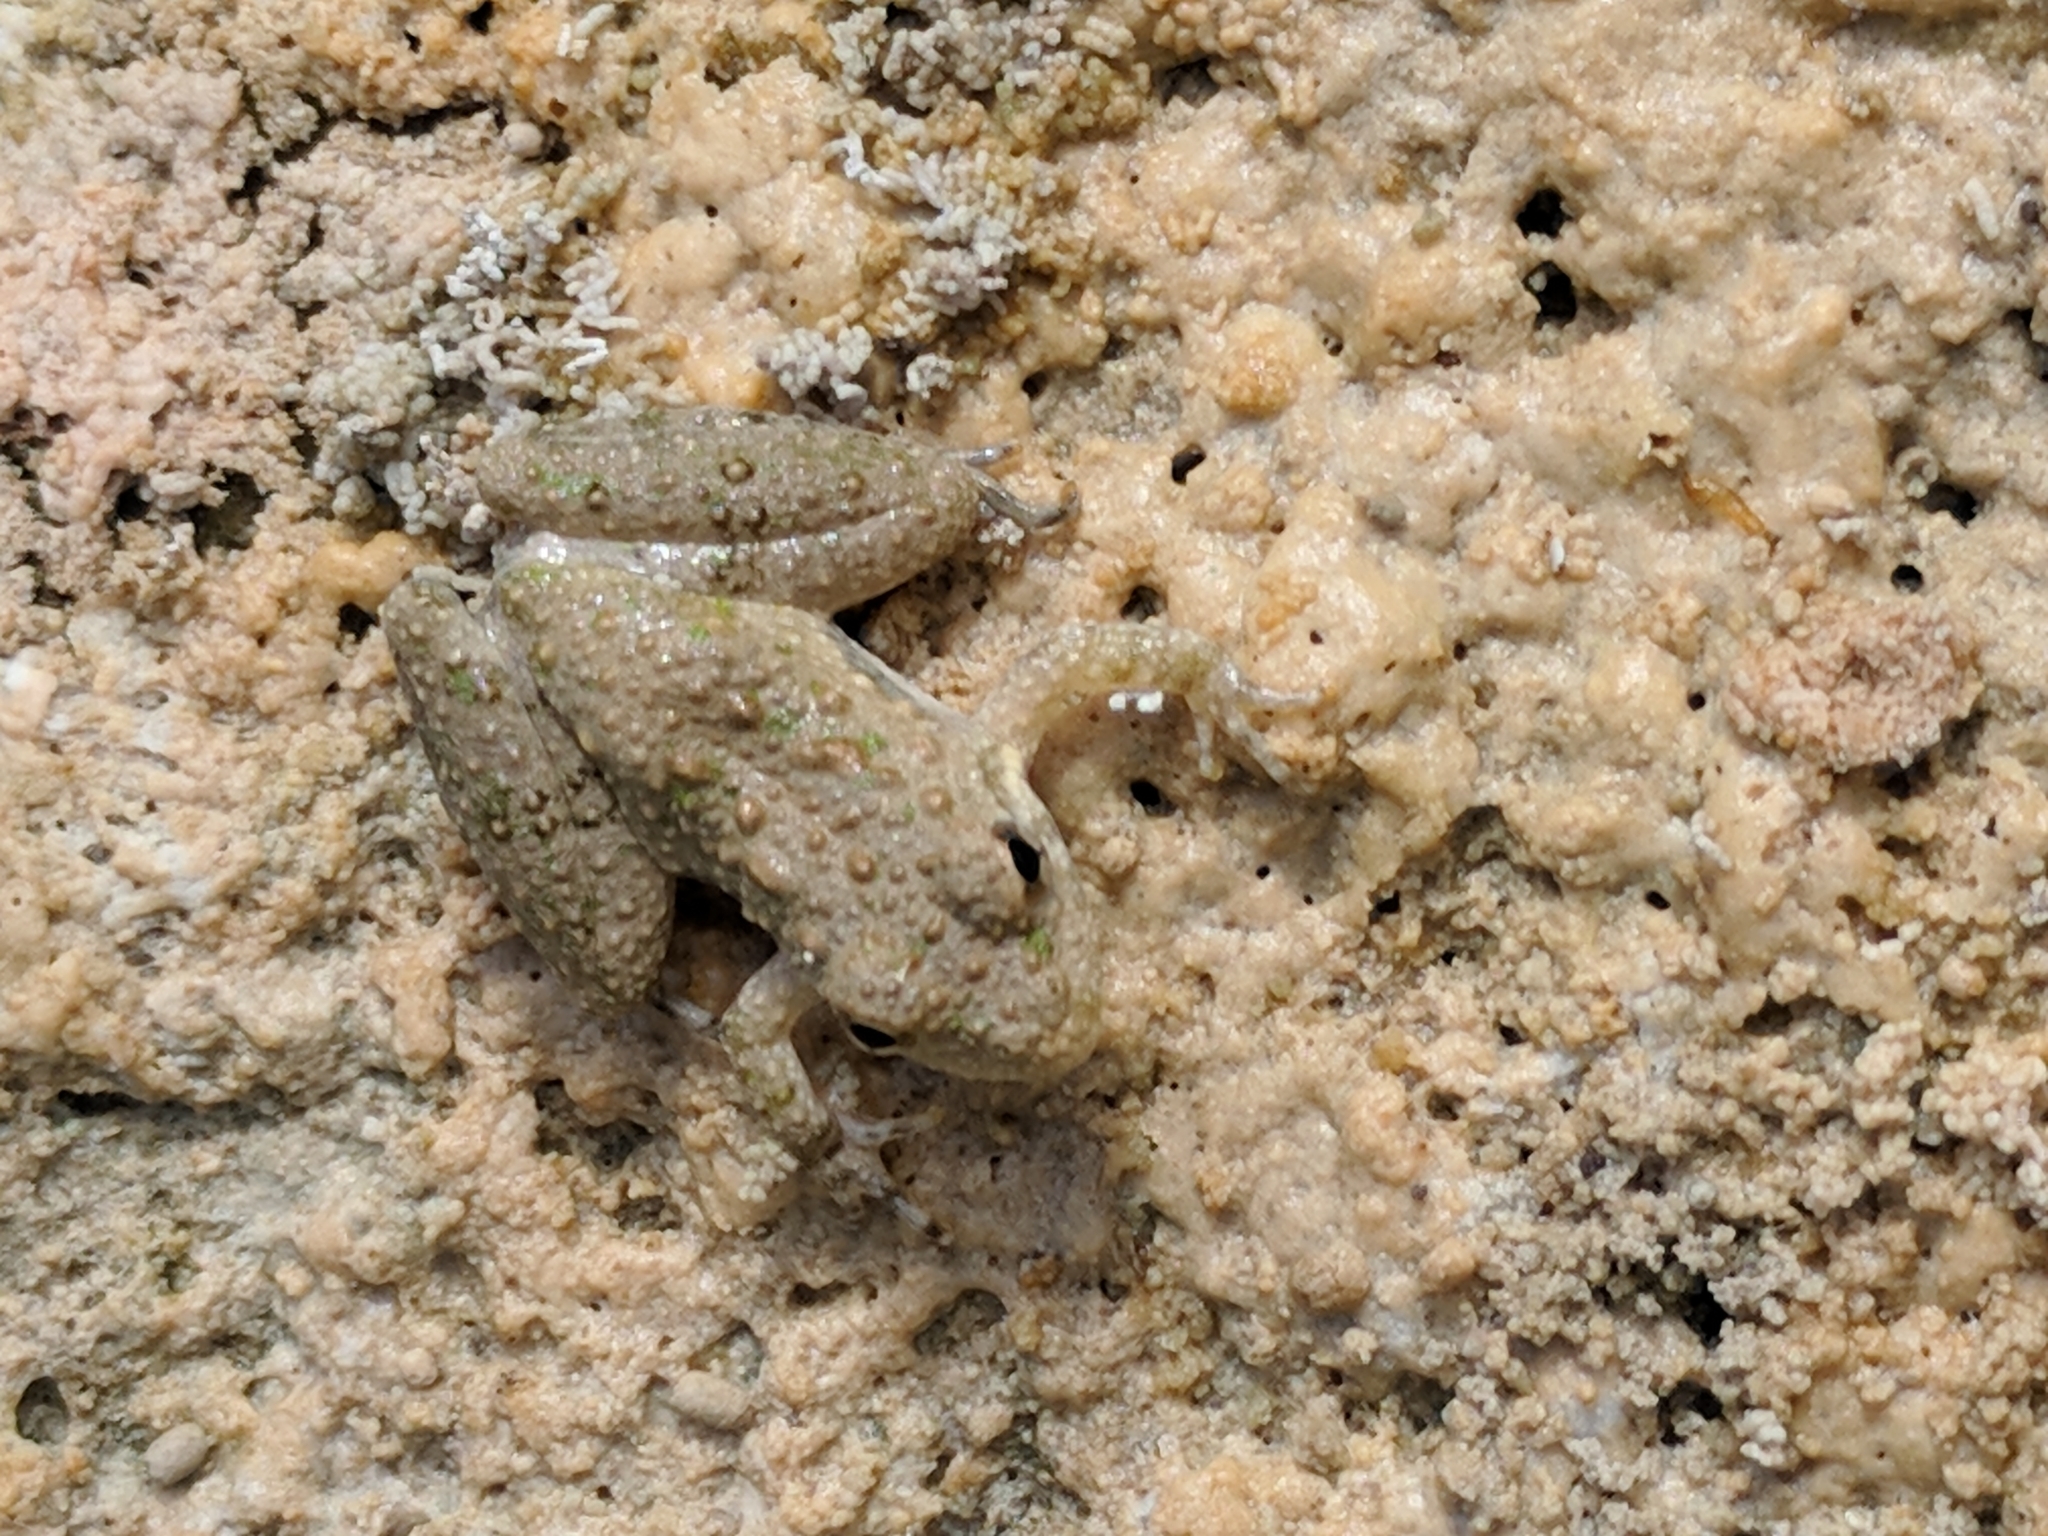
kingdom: Animalia
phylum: Chordata
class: Amphibia
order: Anura
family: Hylidae
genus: Acris
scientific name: Acris blanchardi
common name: Blanchard's cricket frog
